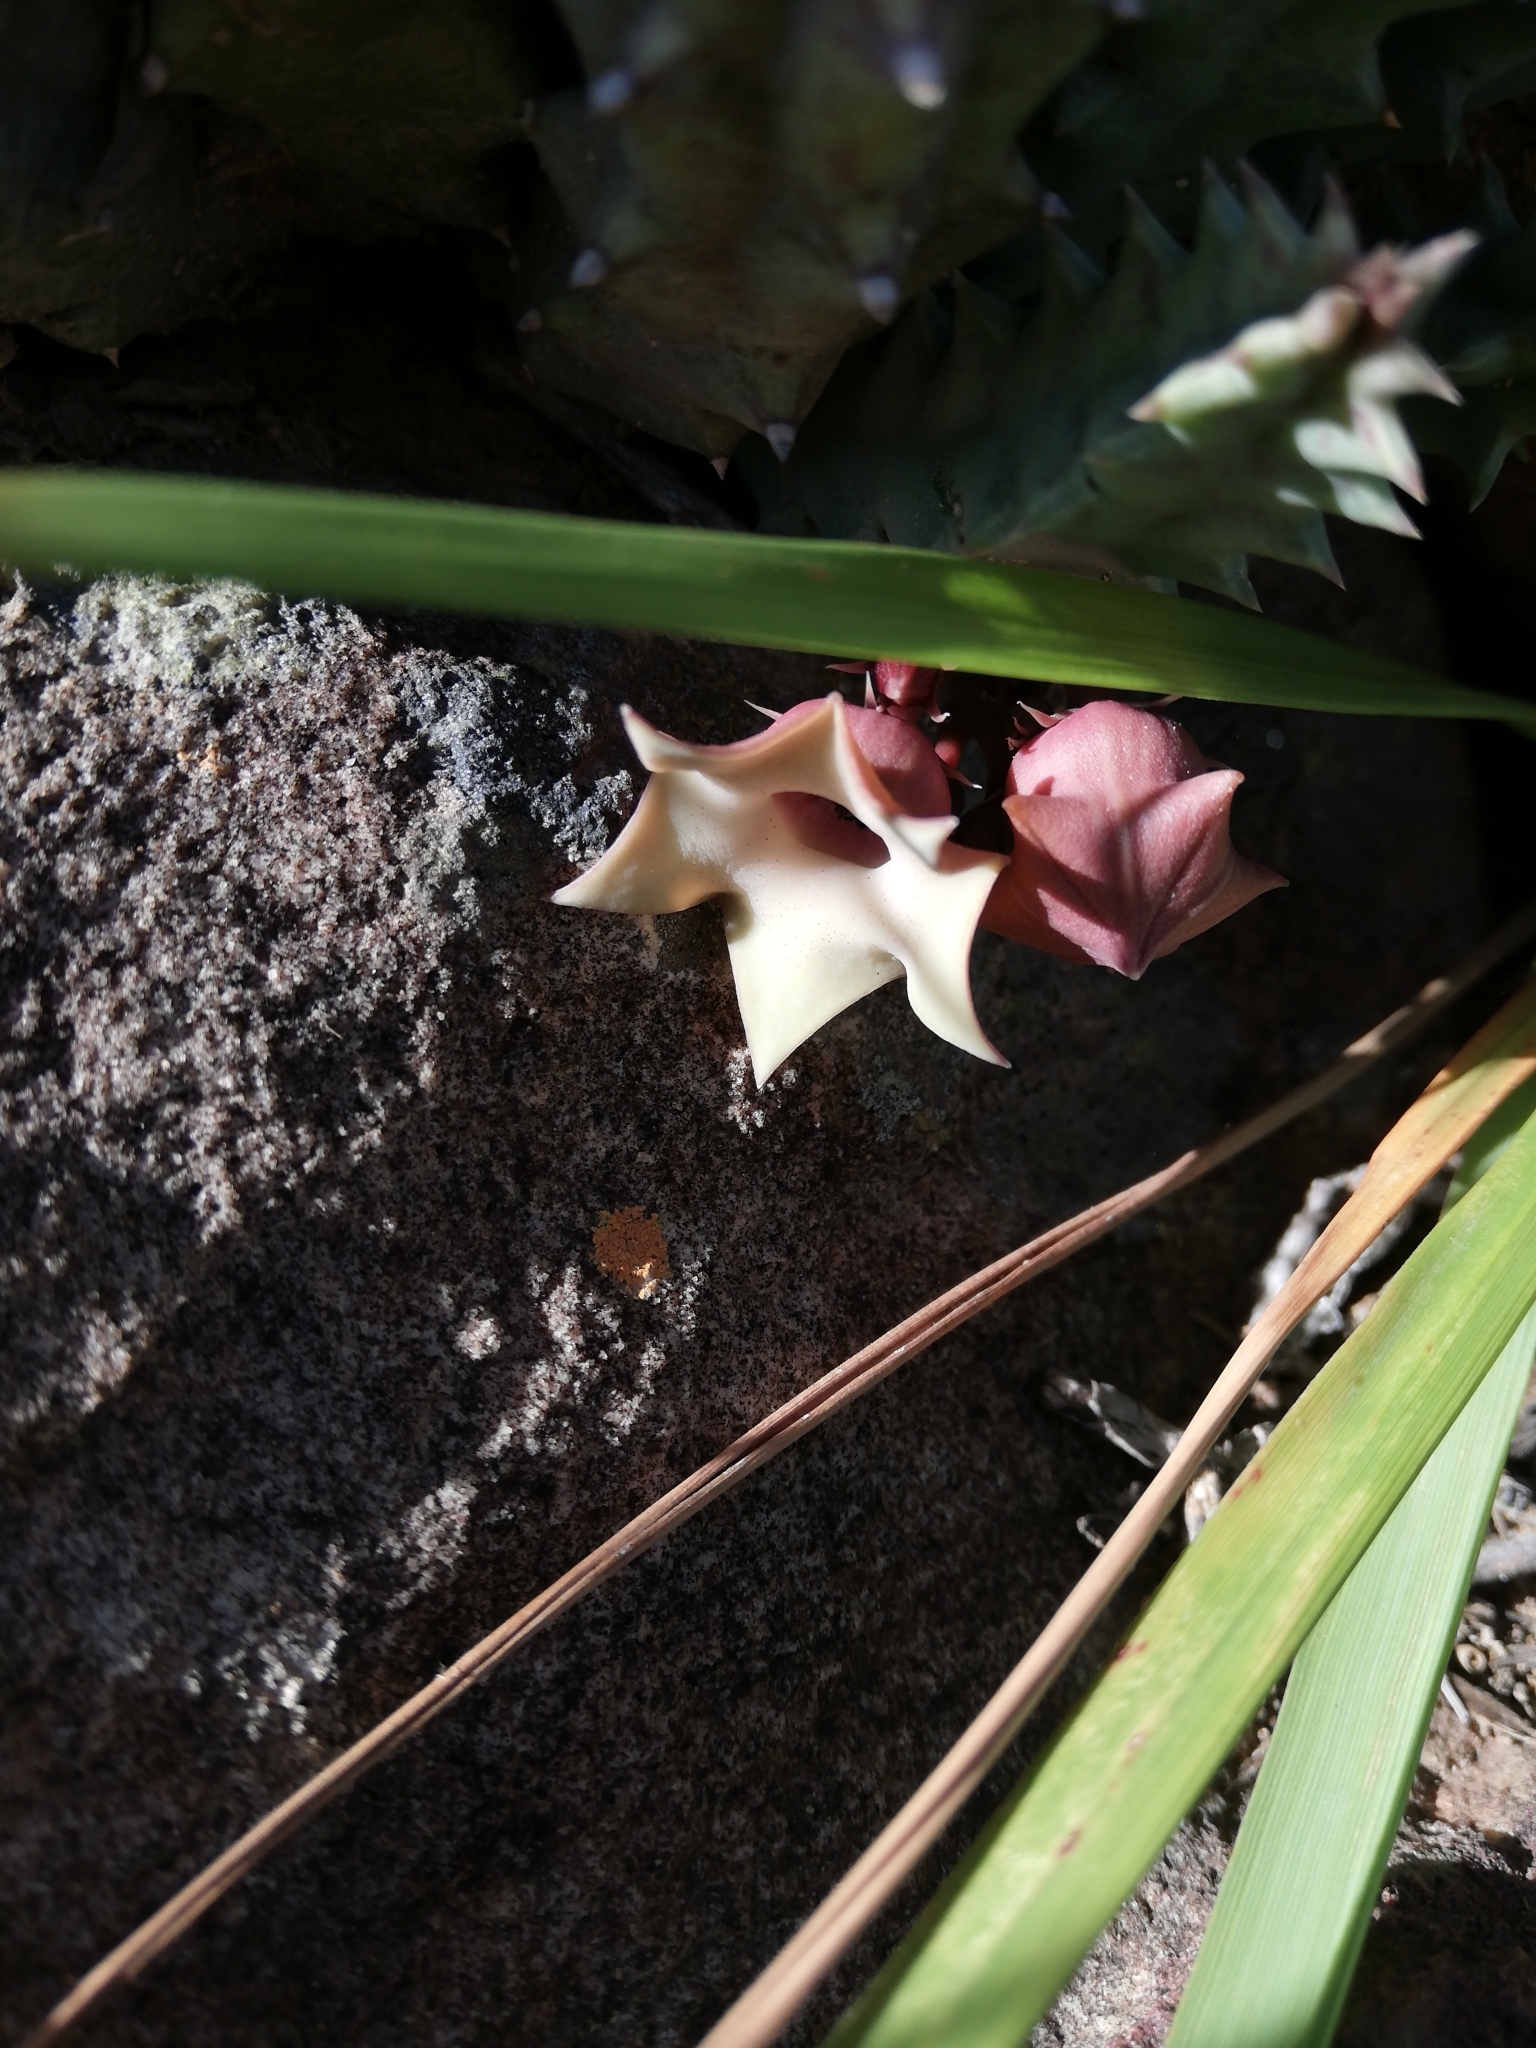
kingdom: Plantae
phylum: Tracheophyta
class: Magnoliopsida
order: Gentianales
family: Apocynaceae
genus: Ceropegia
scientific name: Ceropegia thuretii
